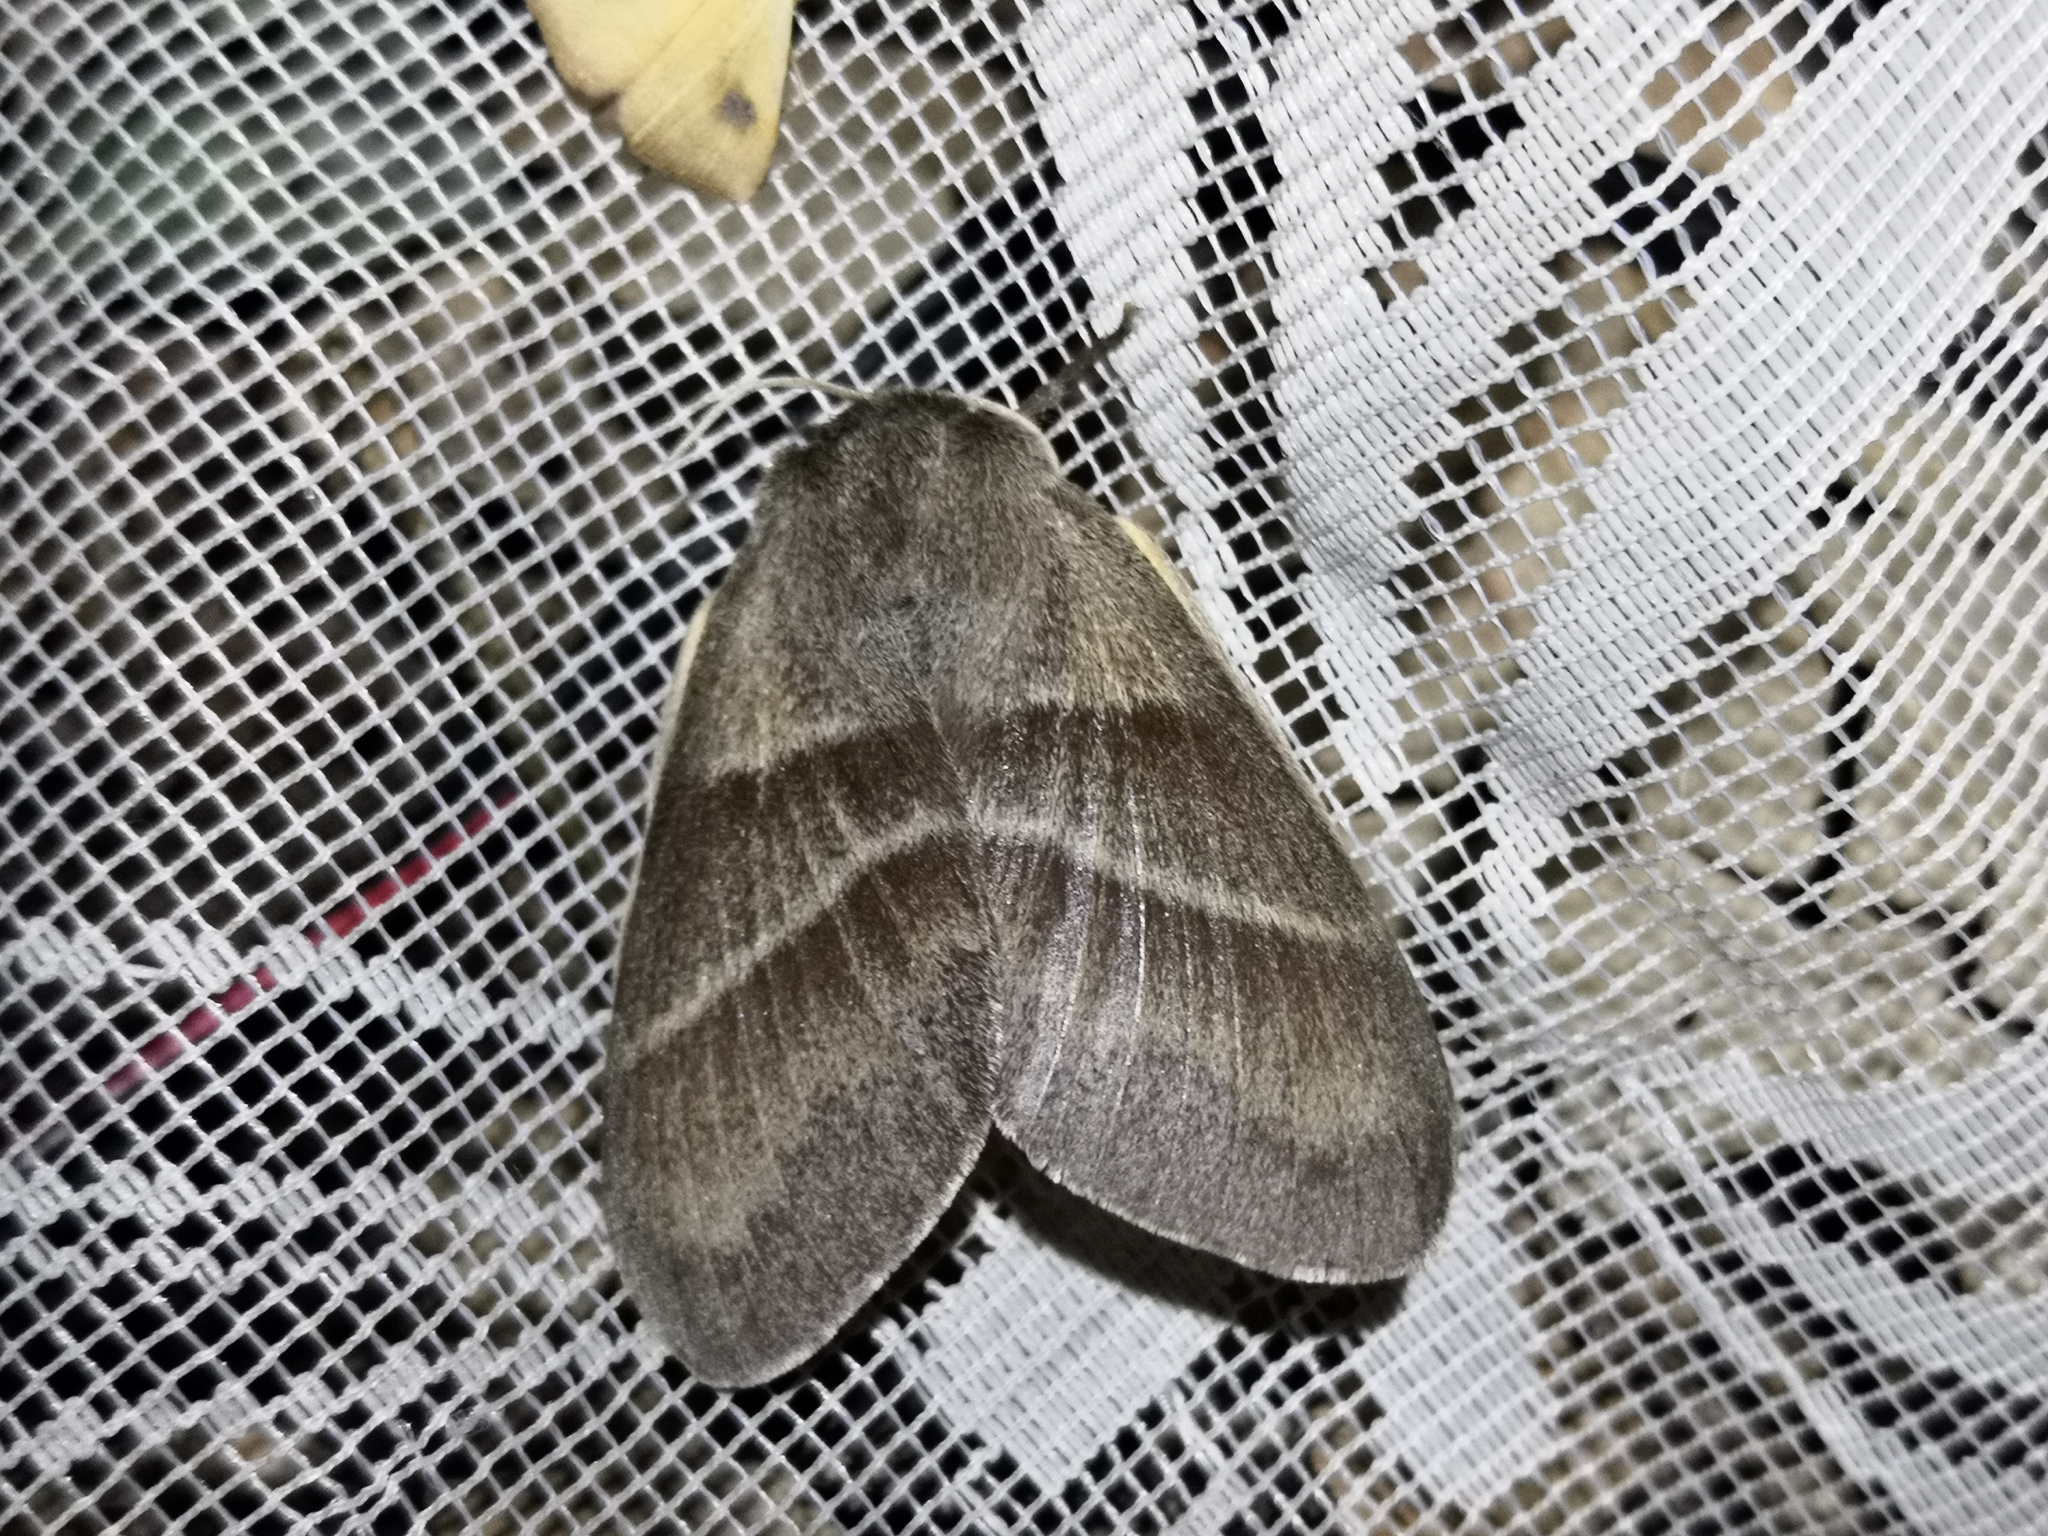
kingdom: Animalia
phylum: Arthropoda
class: Insecta
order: Lepidoptera
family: Lasiocampidae
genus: Macrothylacia
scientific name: Macrothylacia rubi
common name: Fox moth
